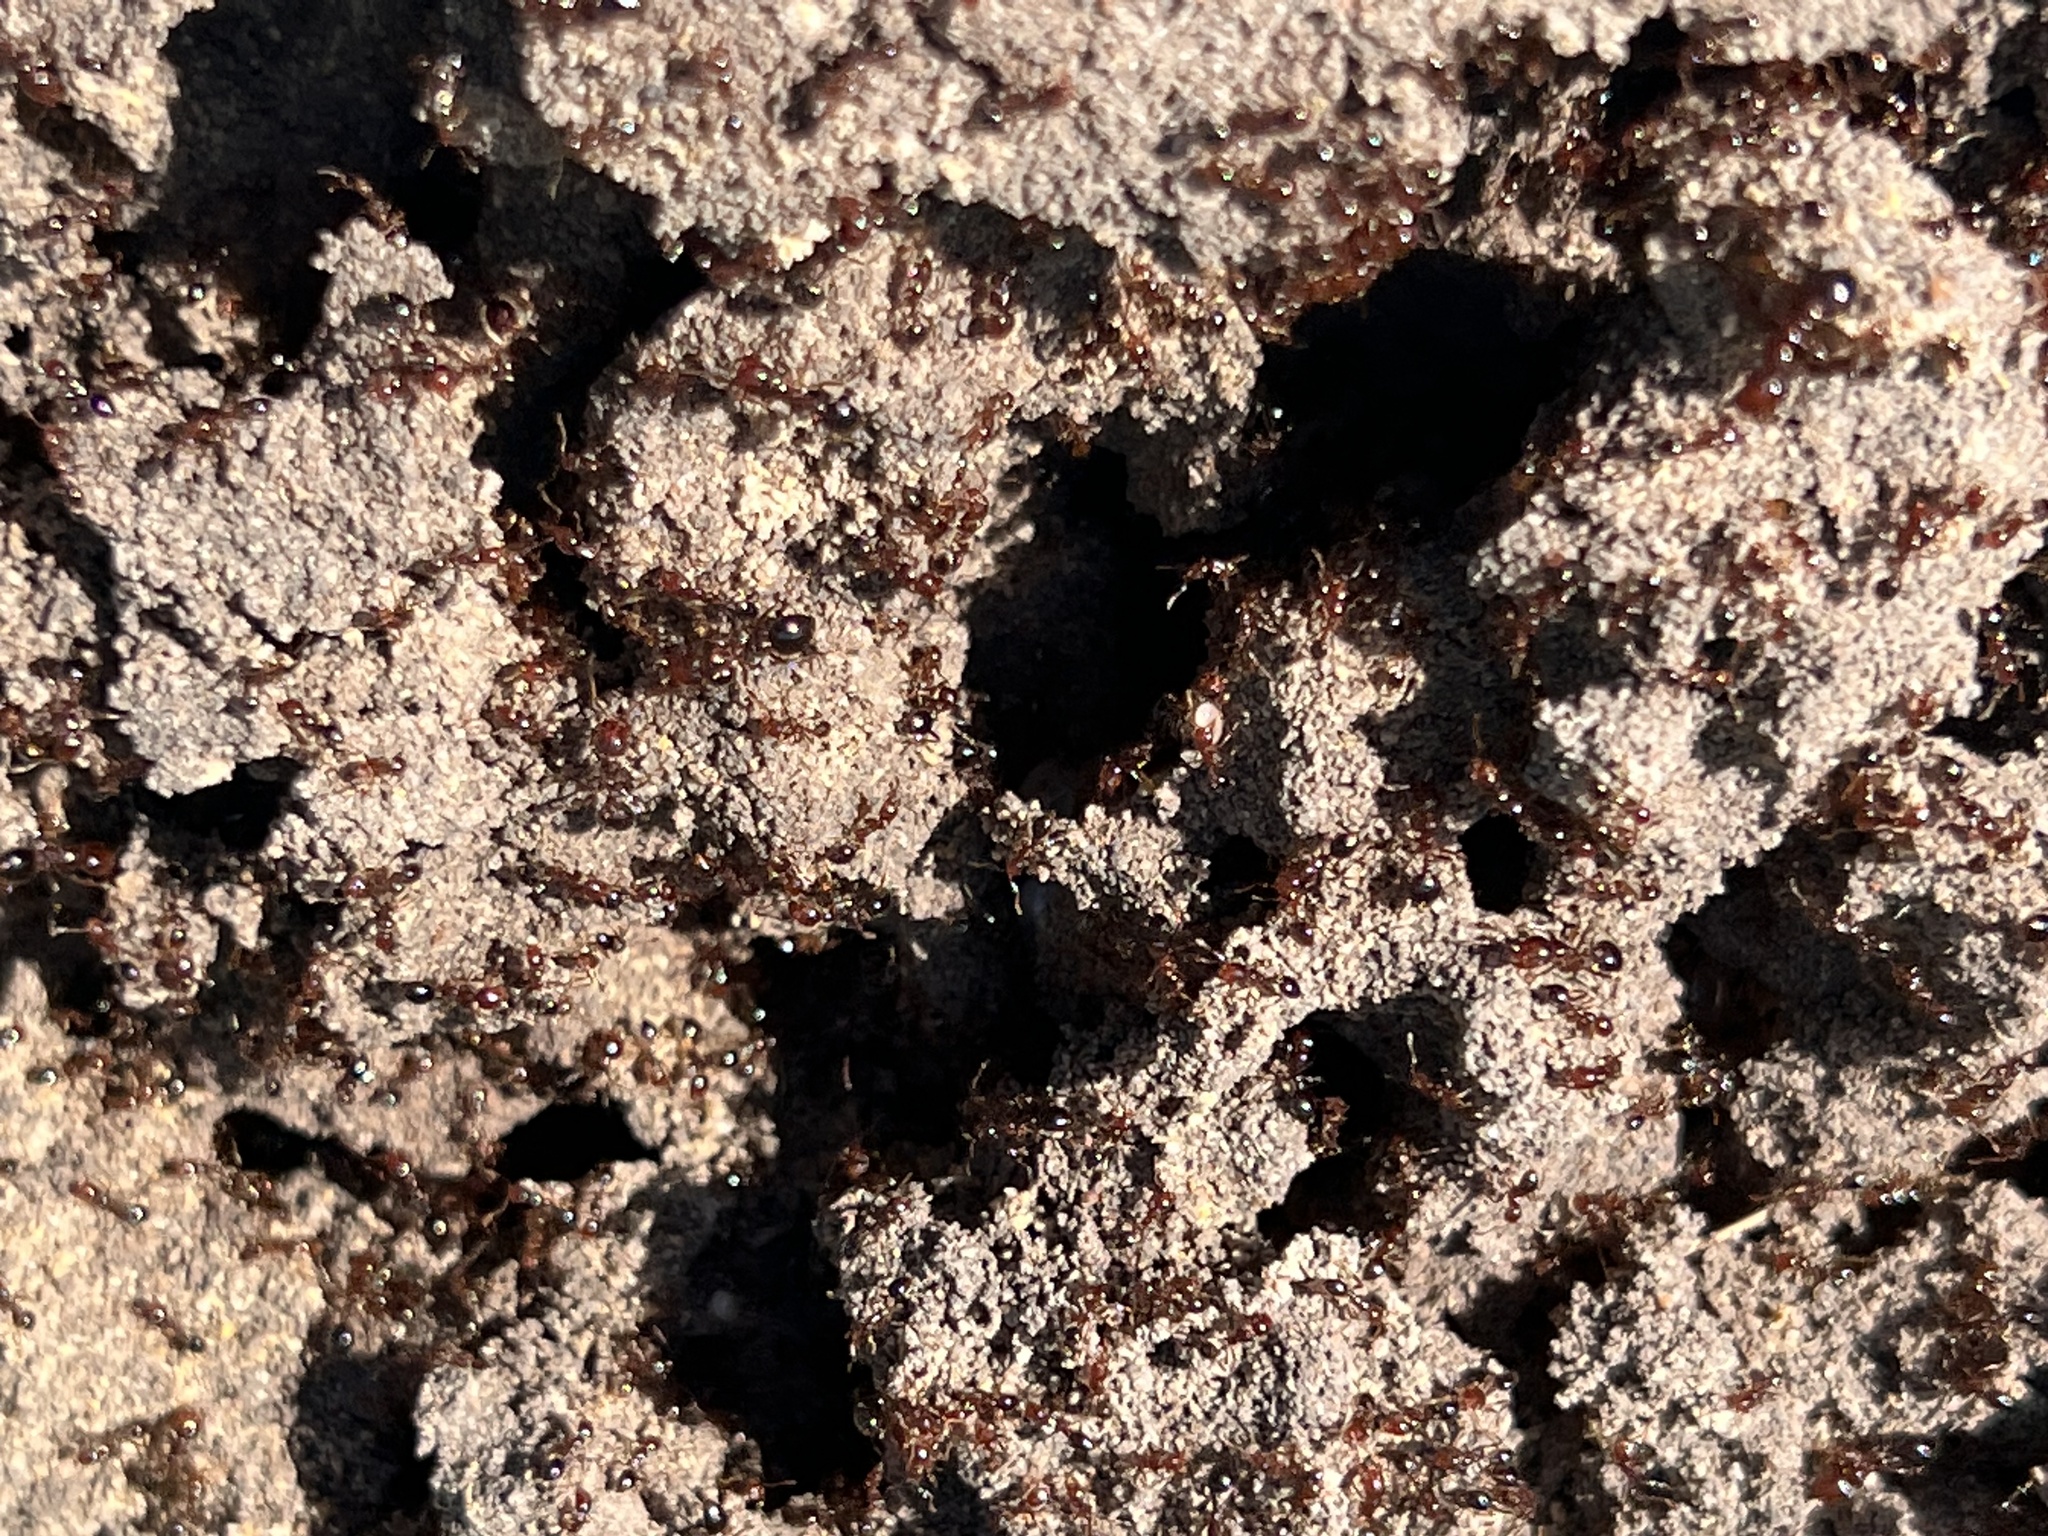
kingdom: Animalia
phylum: Arthropoda
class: Insecta
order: Hymenoptera
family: Formicidae
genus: Solenopsis
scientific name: Solenopsis invicta
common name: Red imported fire ant
